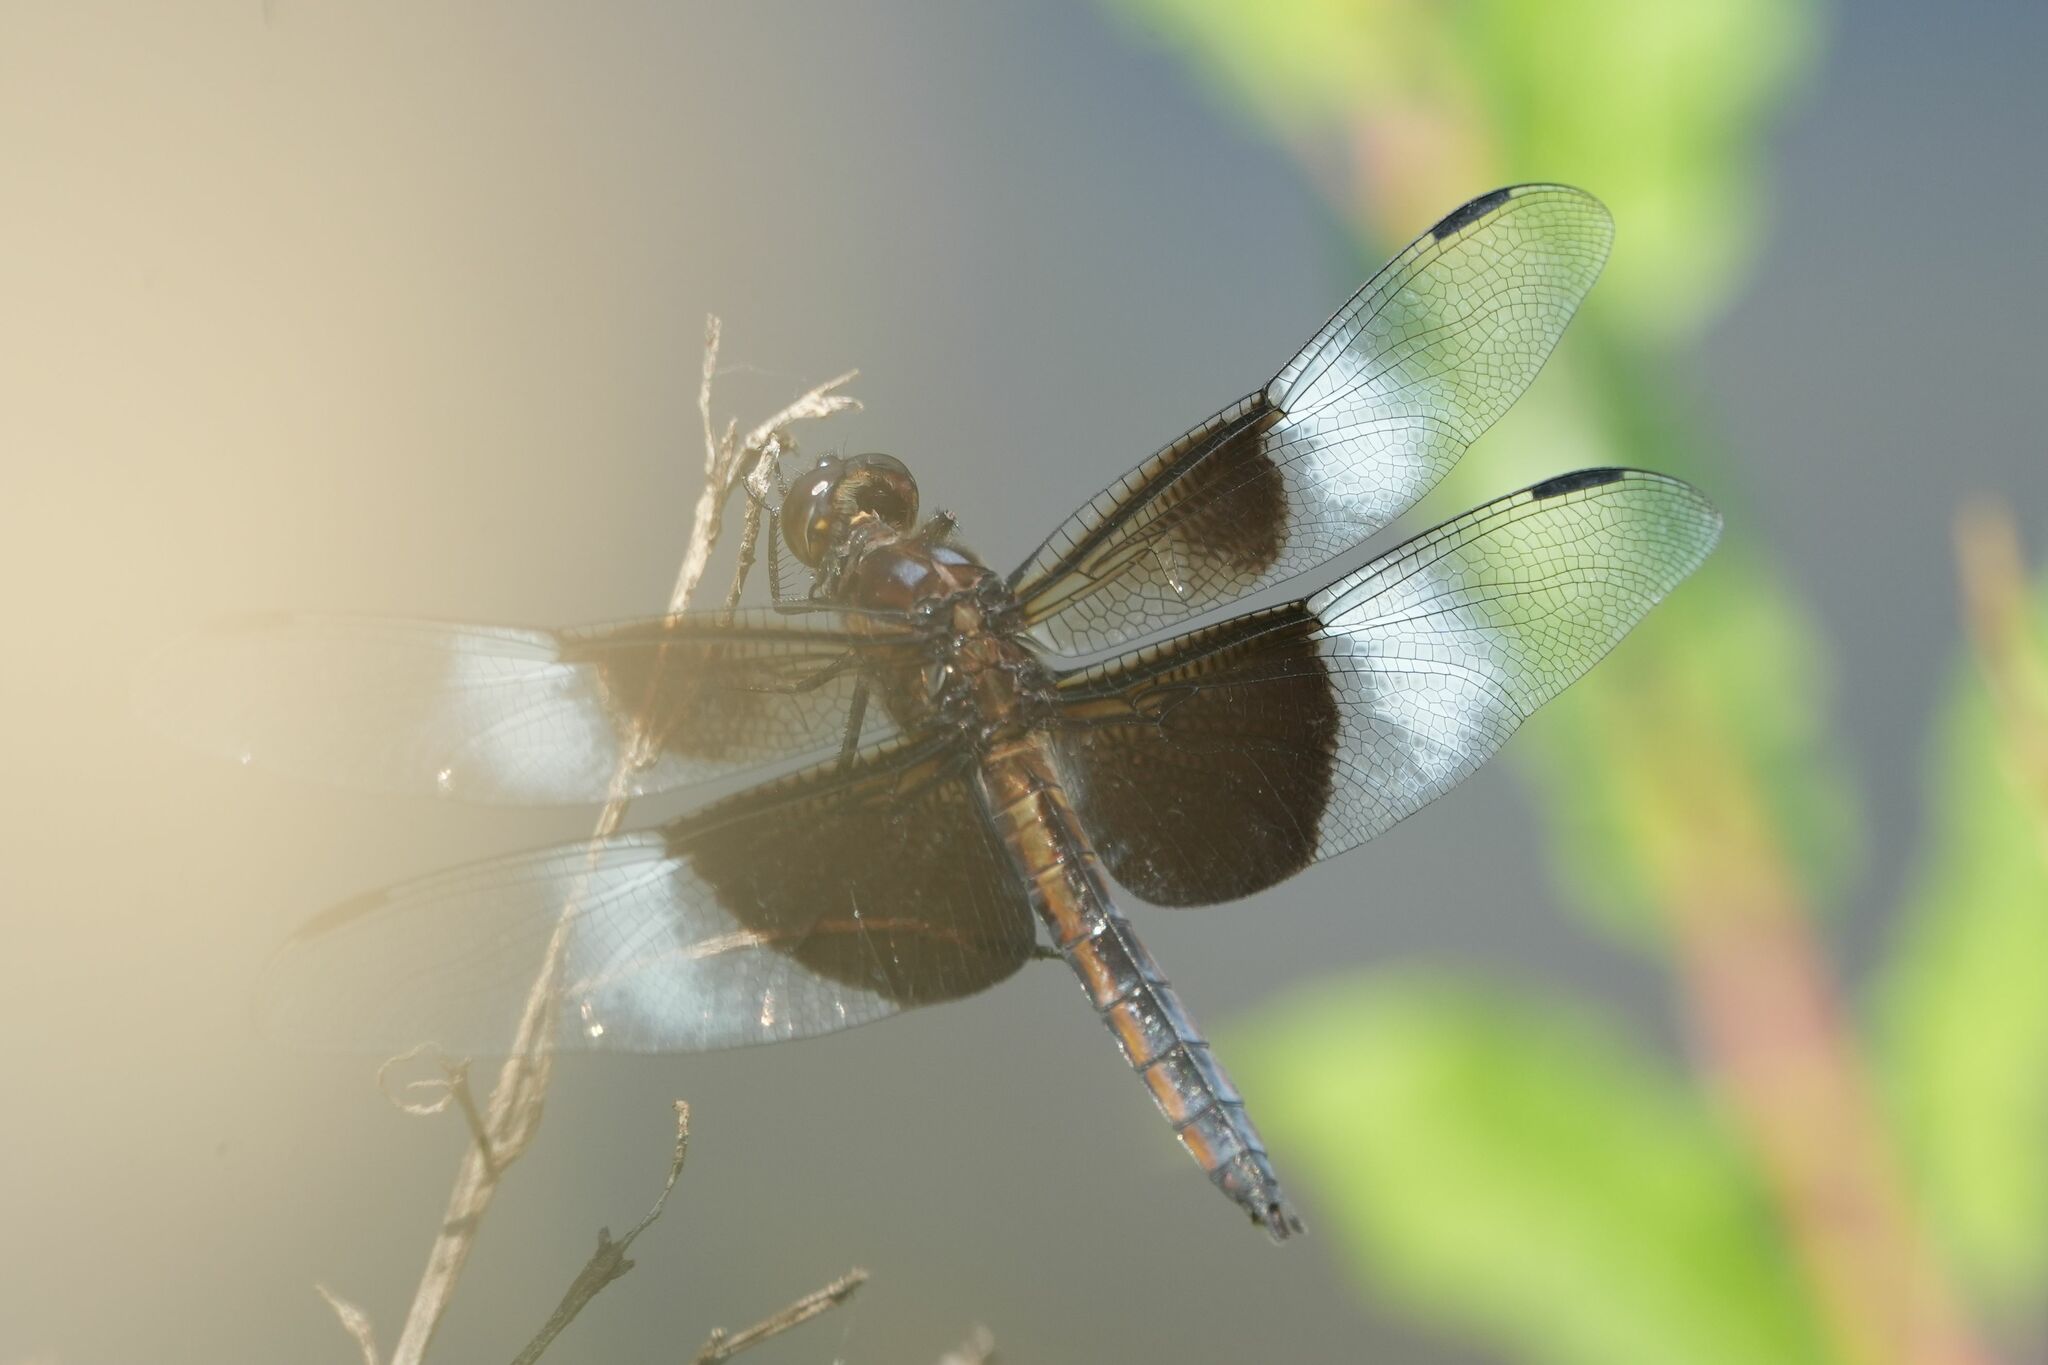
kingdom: Animalia
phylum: Arthropoda
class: Insecta
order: Odonata
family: Libellulidae
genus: Libellula
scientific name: Libellula luctuosa
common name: Widow skimmer
